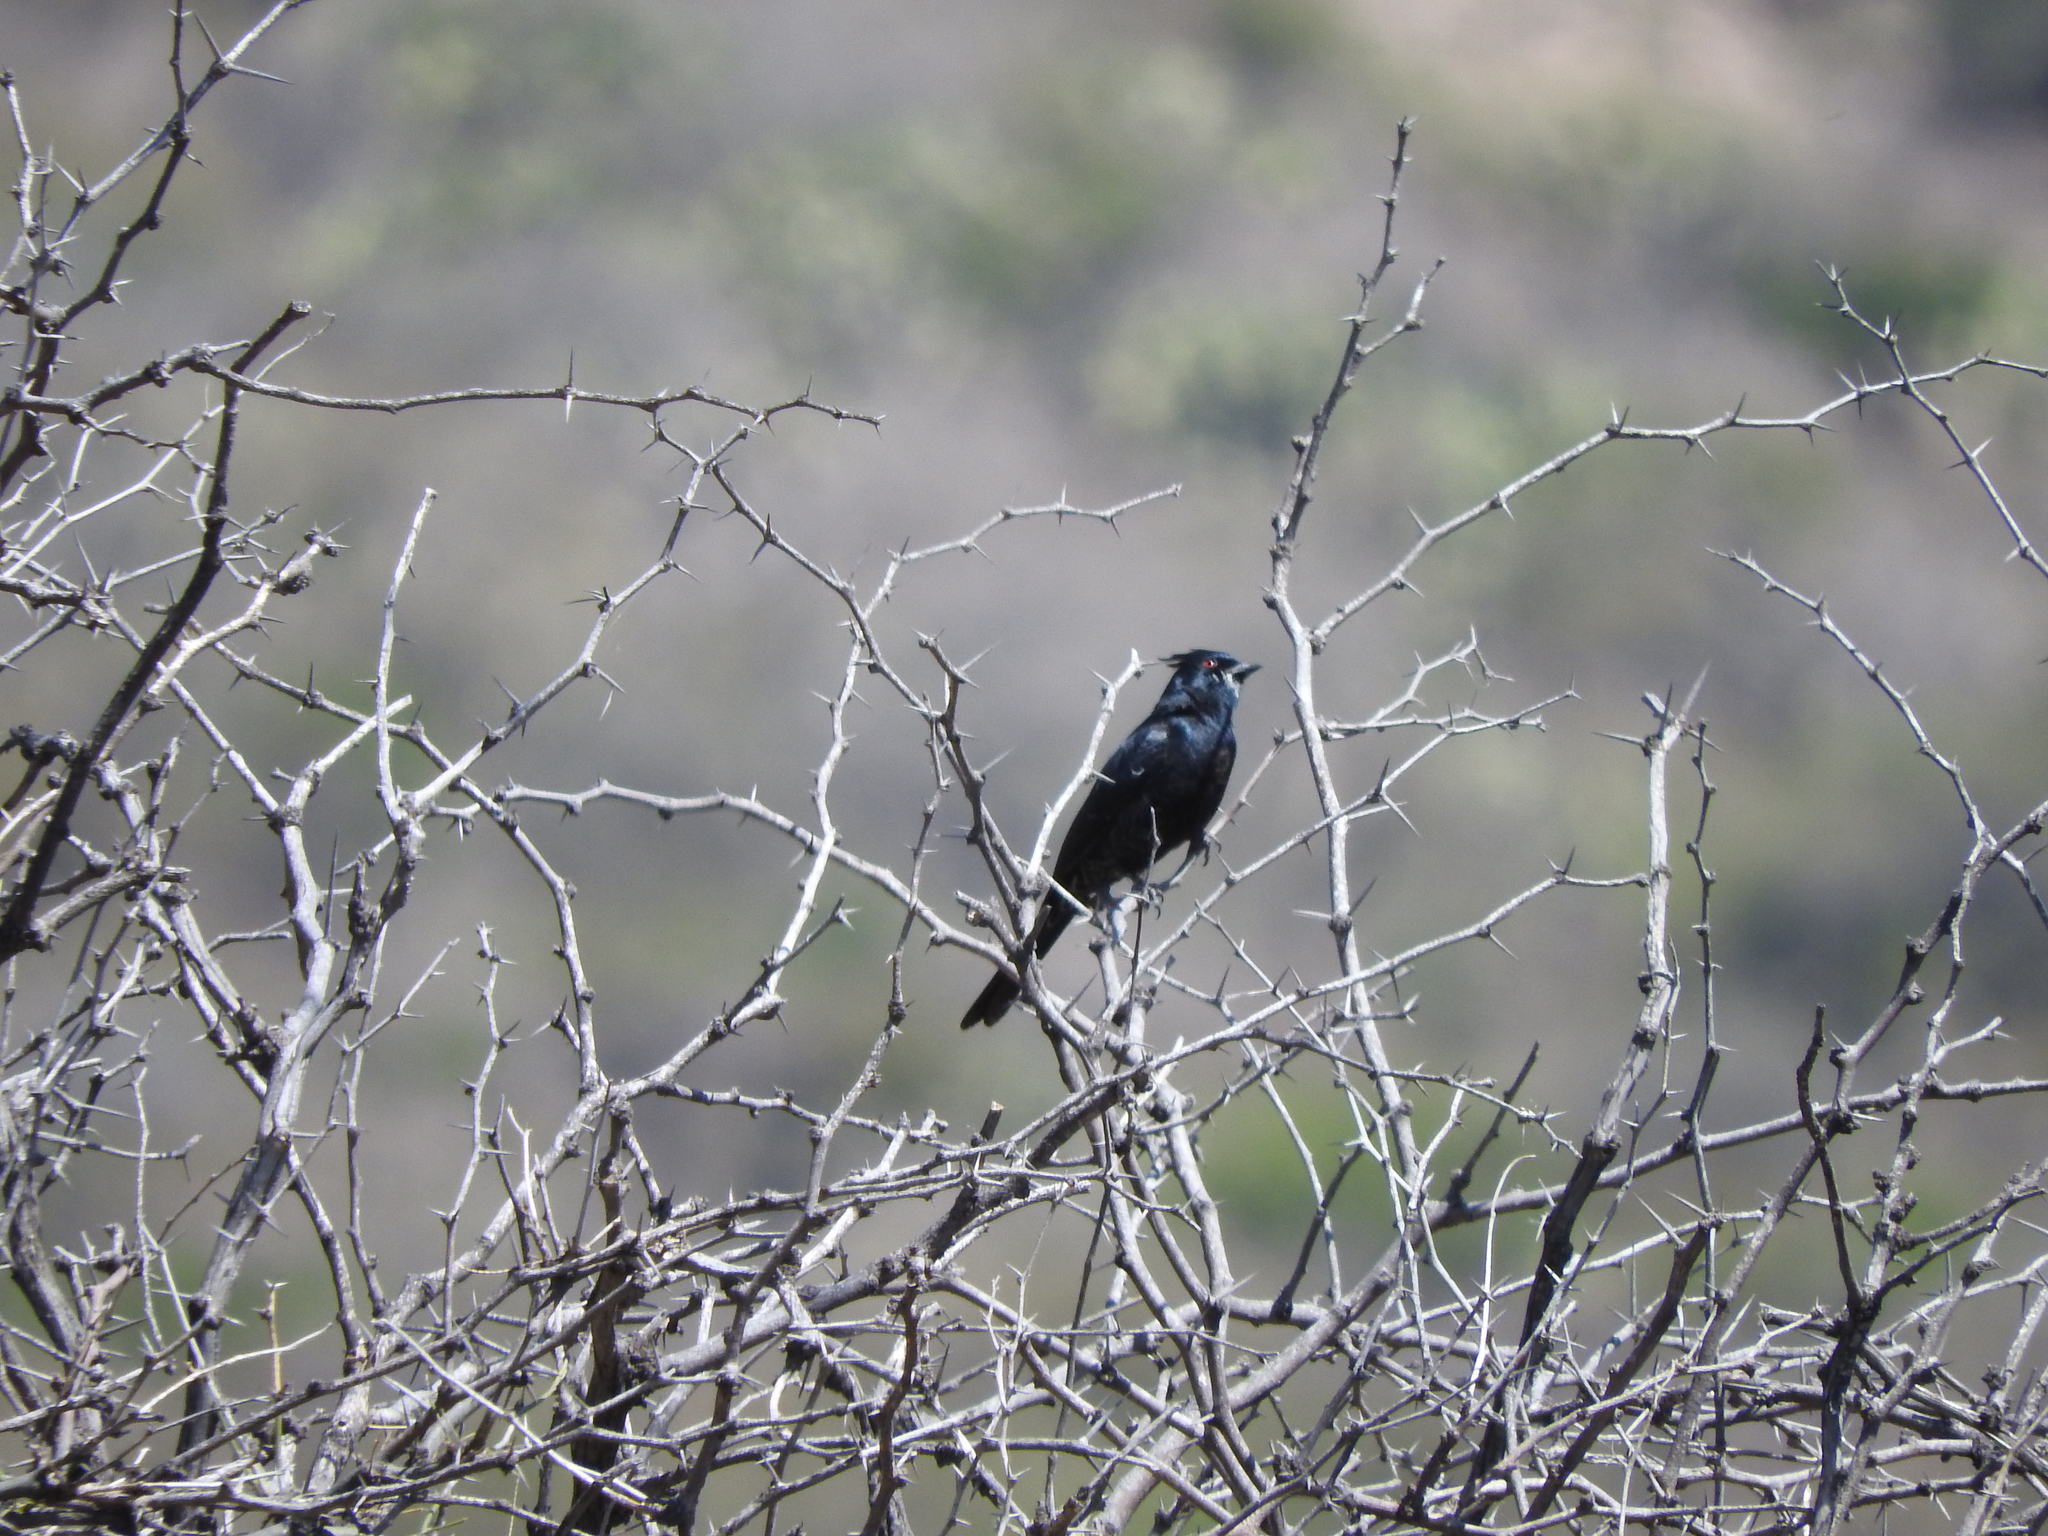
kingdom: Animalia
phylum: Chordata
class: Aves
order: Passeriformes
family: Ptilogonatidae
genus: Phainopepla
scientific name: Phainopepla nitens
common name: Phainopepla
